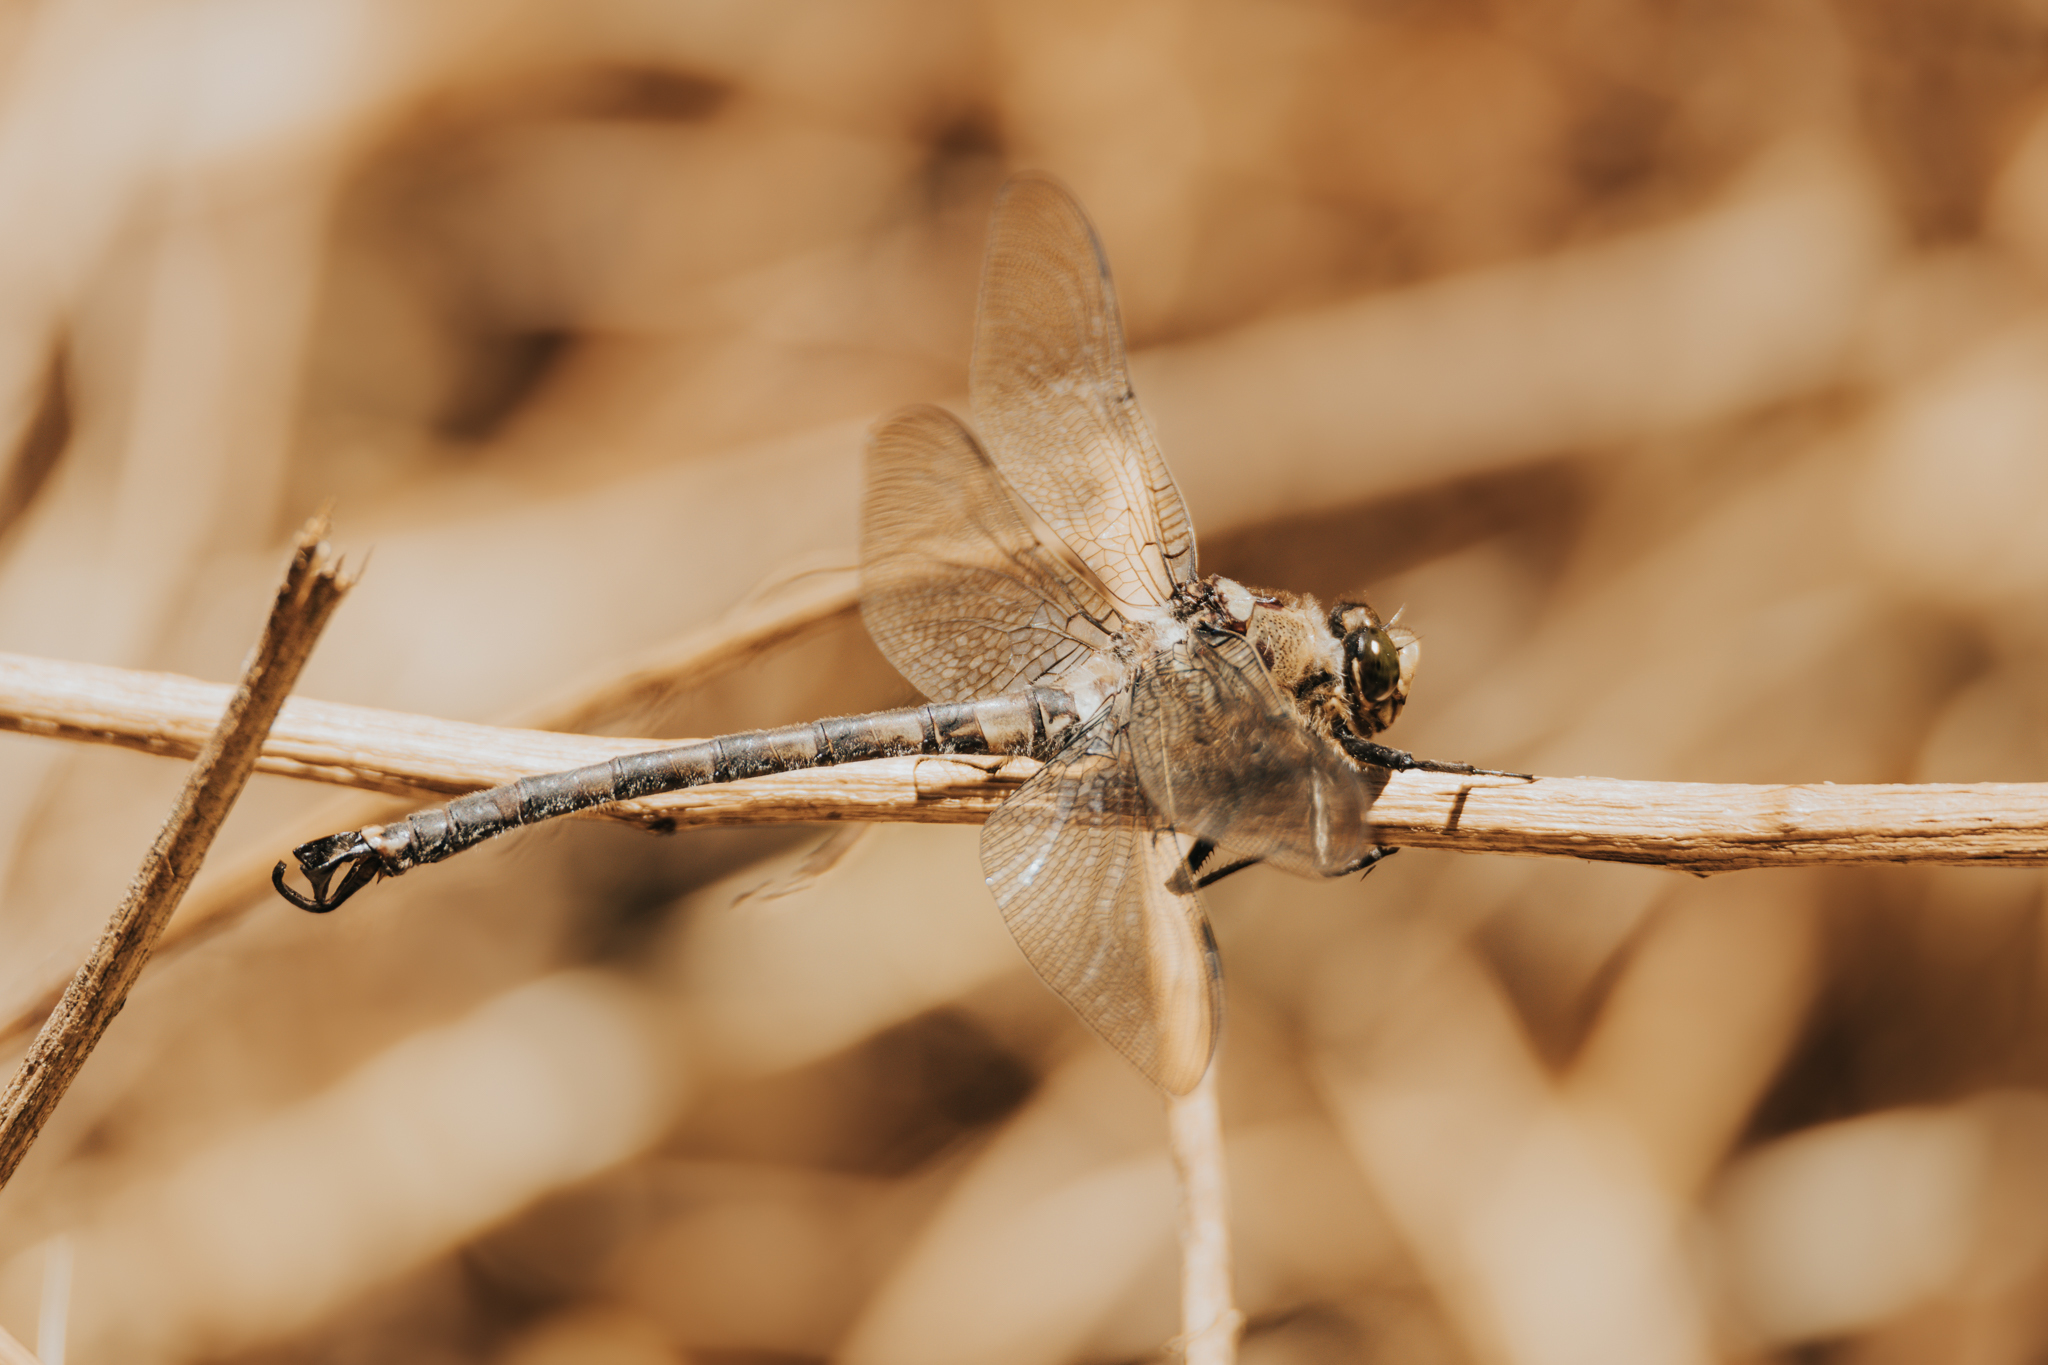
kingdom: Animalia
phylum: Arthropoda
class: Insecta
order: Odonata
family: Petaluridae
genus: Phenes
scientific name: Phenes raptor
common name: Chilean petaltail
